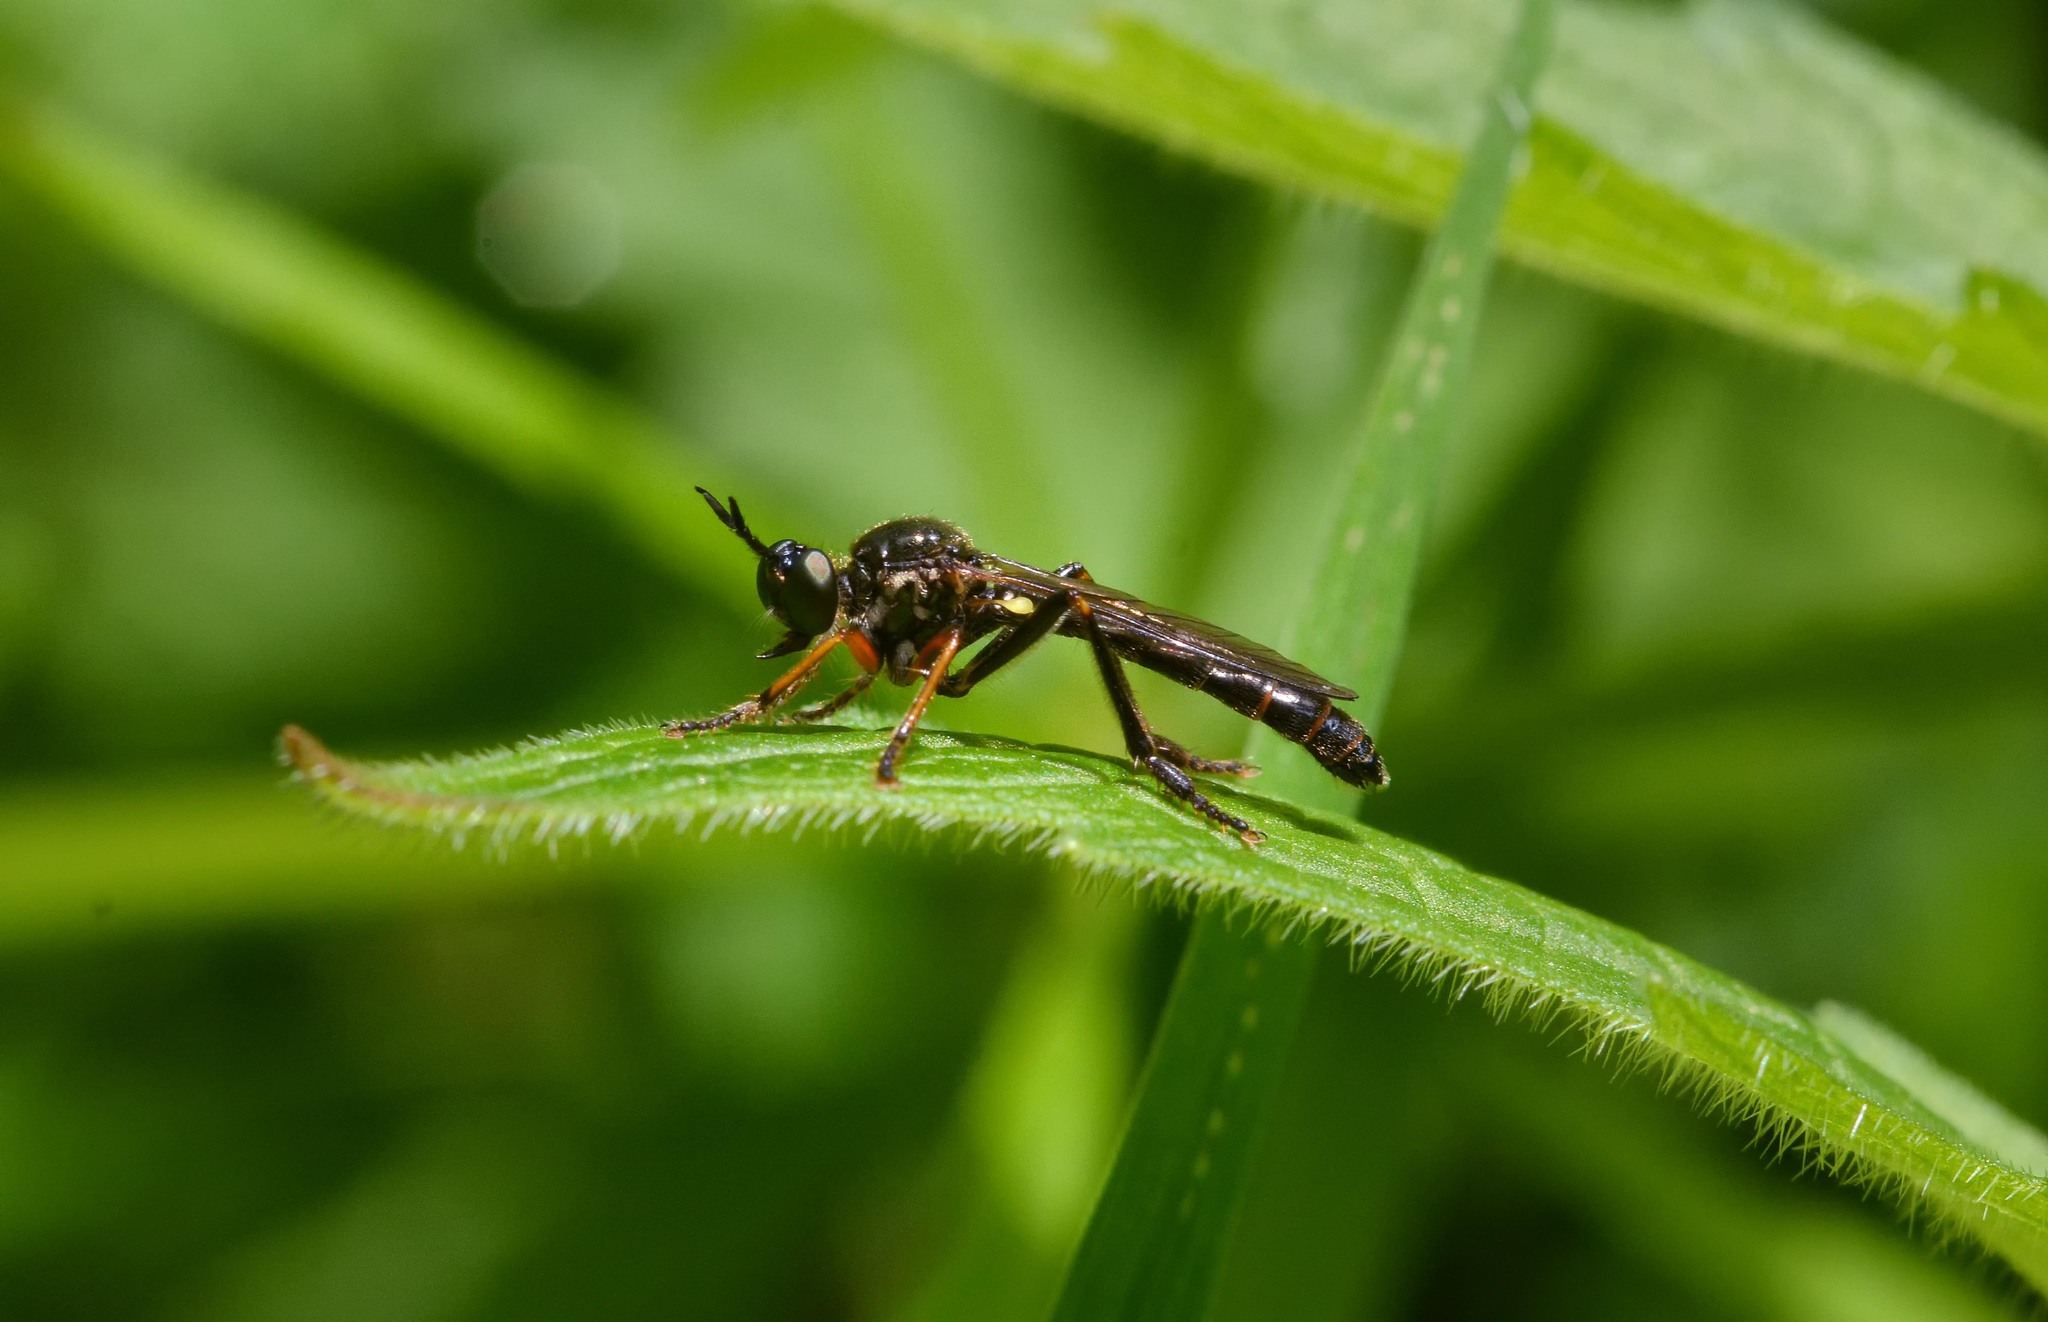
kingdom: Animalia
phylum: Arthropoda
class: Insecta
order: Diptera
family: Asilidae
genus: Dioctria
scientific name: Dioctria rufipes
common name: Common red-legged robberfly
